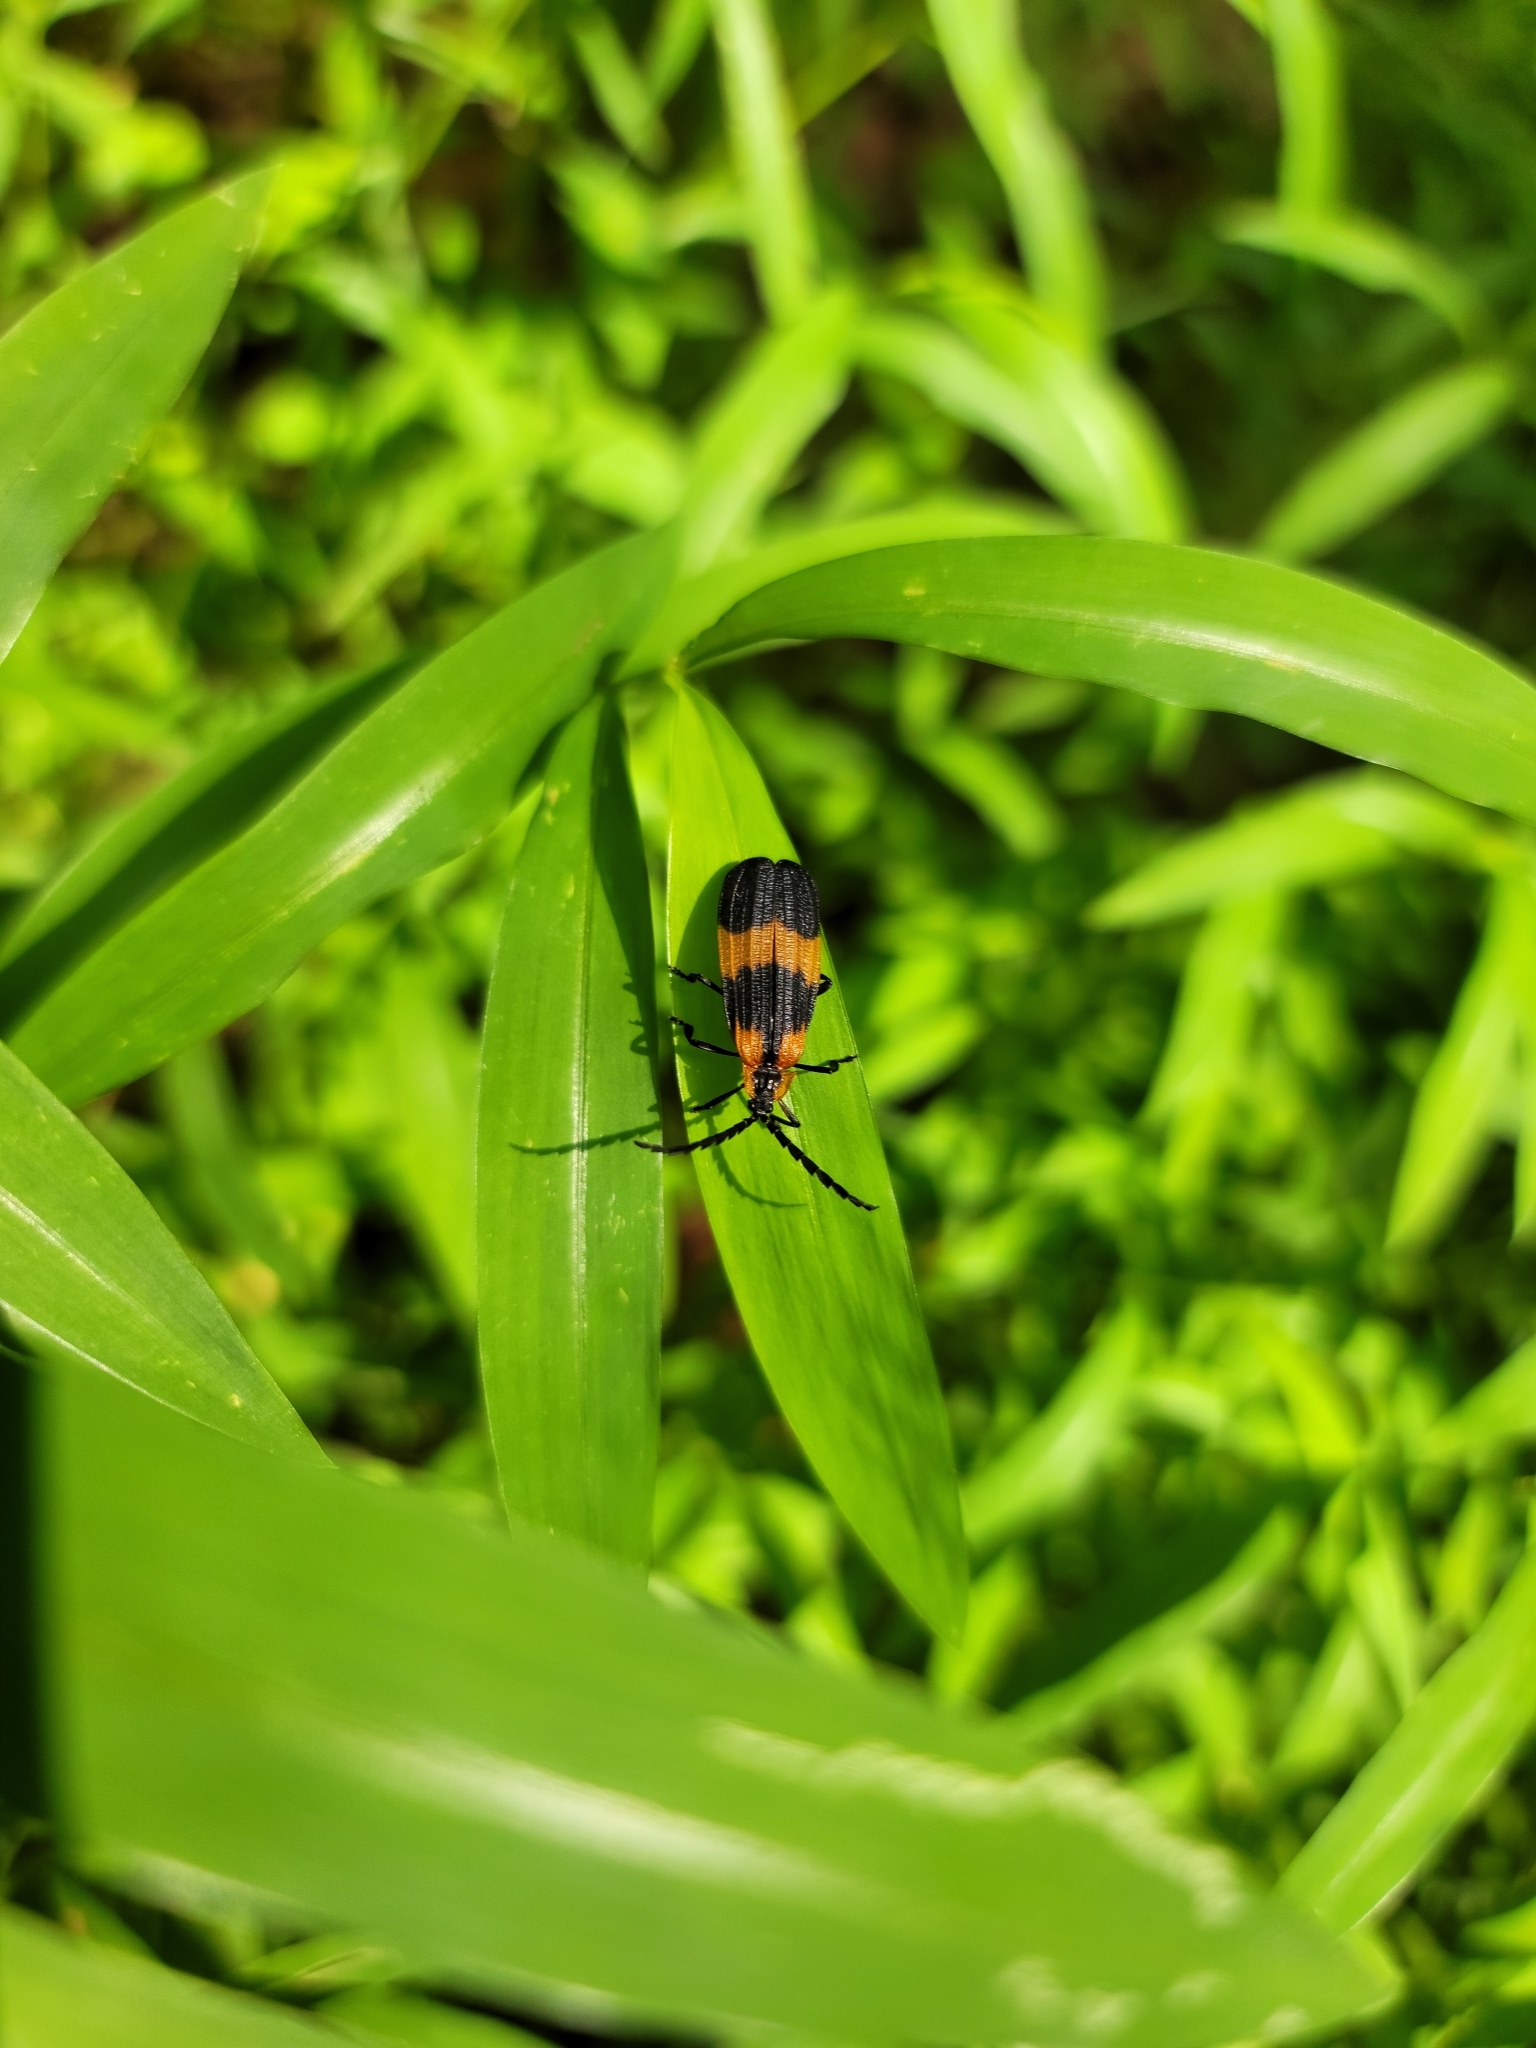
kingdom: Animalia
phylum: Arthropoda
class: Insecta
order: Coleoptera
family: Lycidae
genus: Calopteron
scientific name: Calopteron reticulatum
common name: Banded net-winged beetle
